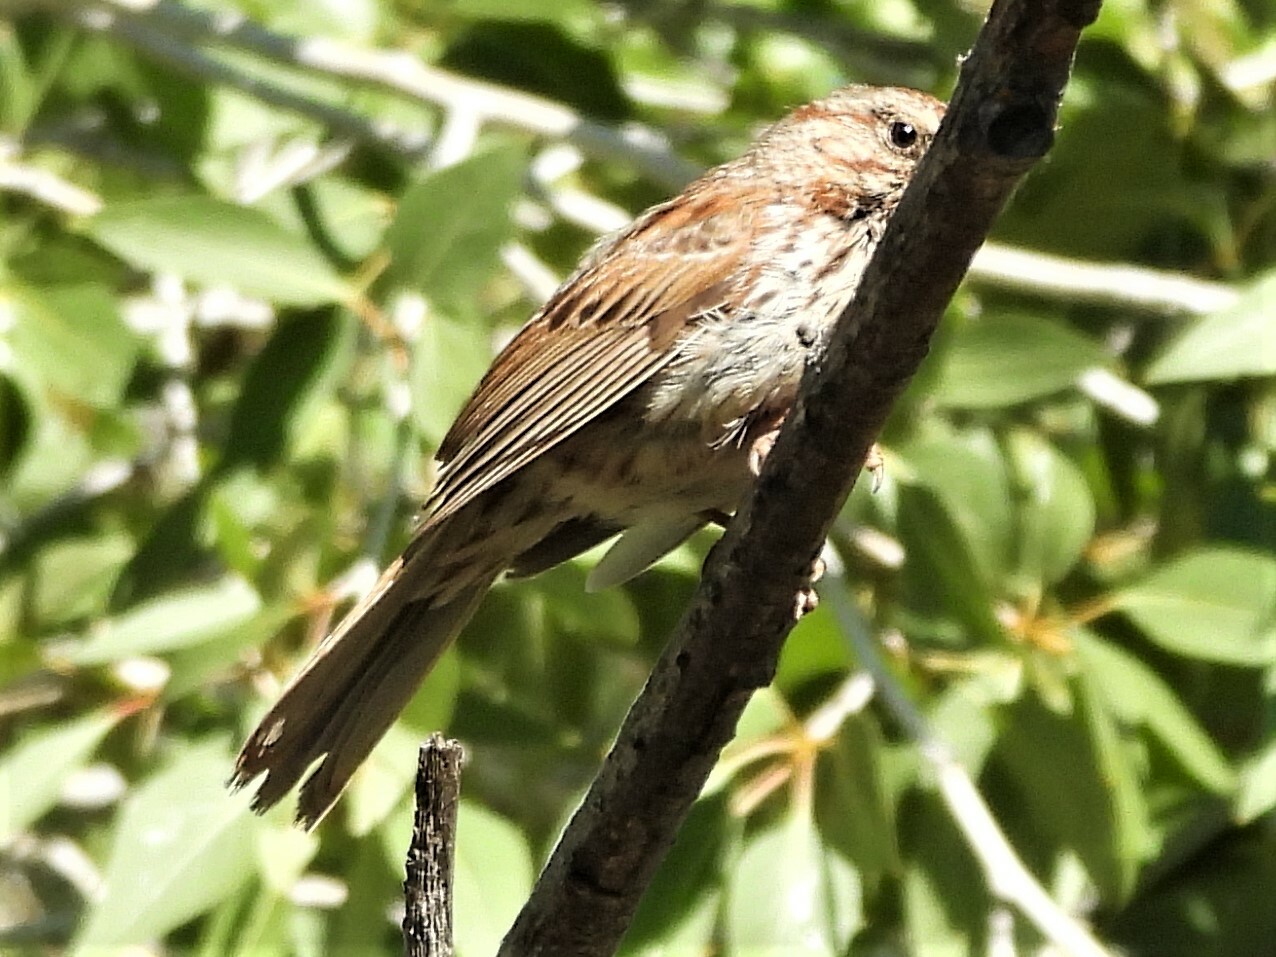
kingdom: Animalia
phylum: Chordata
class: Aves
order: Passeriformes
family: Passerellidae
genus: Melospiza
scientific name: Melospiza melodia
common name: Song sparrow
